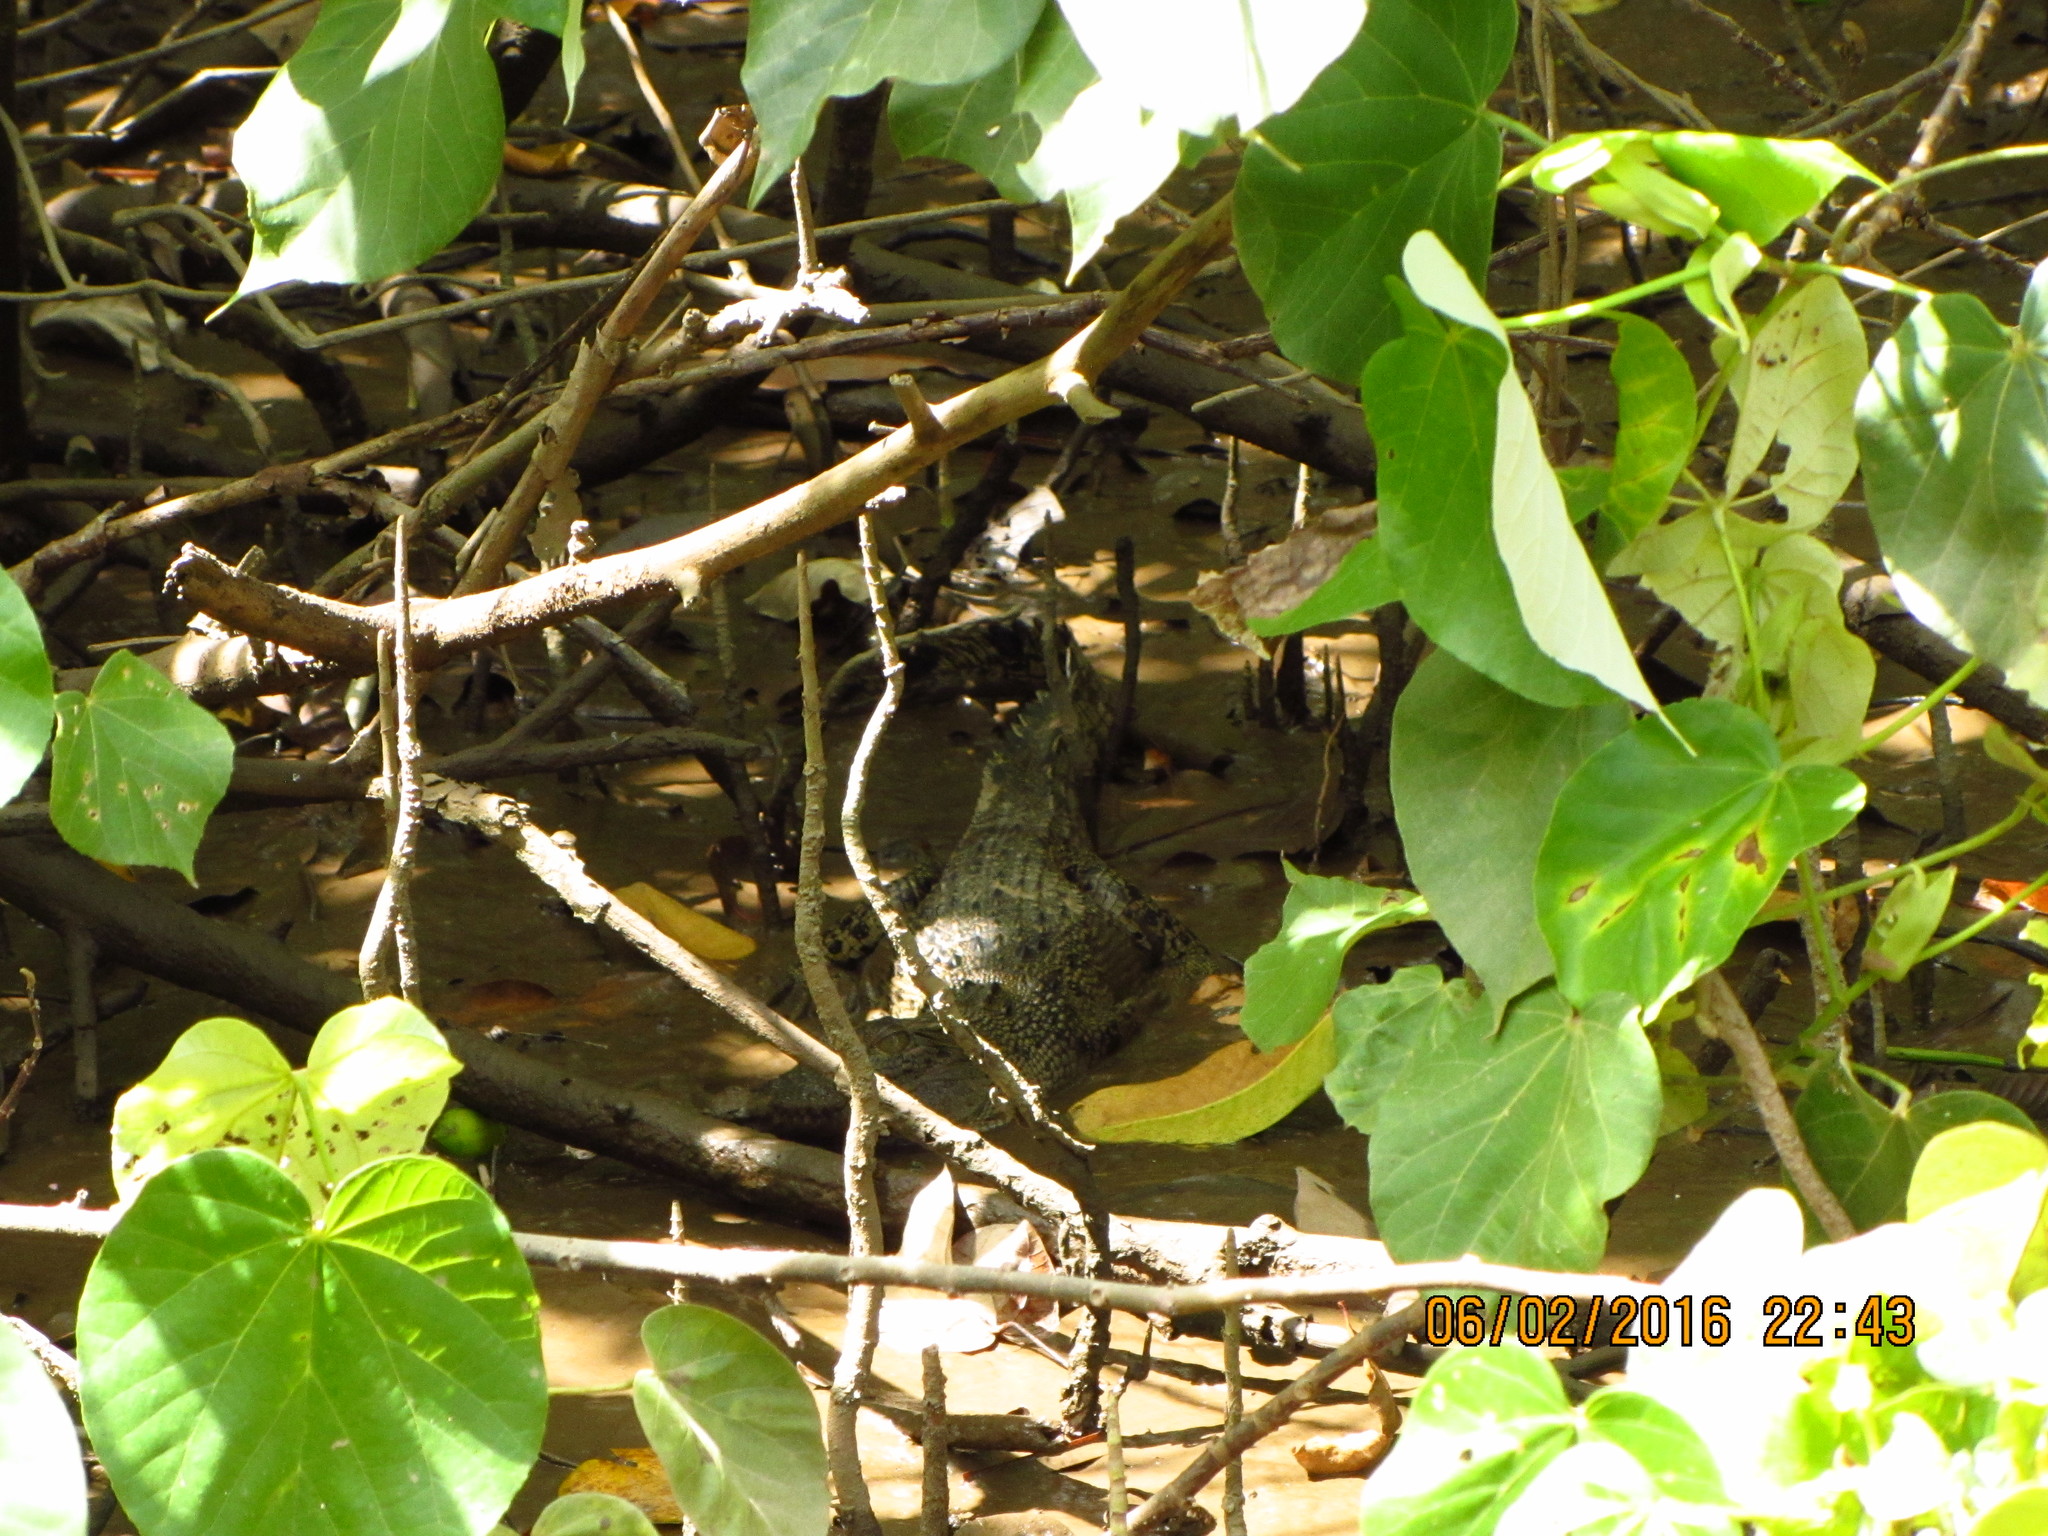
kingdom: Animalia
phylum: Chordata
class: Crocodylia
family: Crocodylidae
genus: Crocodylus
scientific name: Crocodylus porosus
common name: Saltwater crocodile
